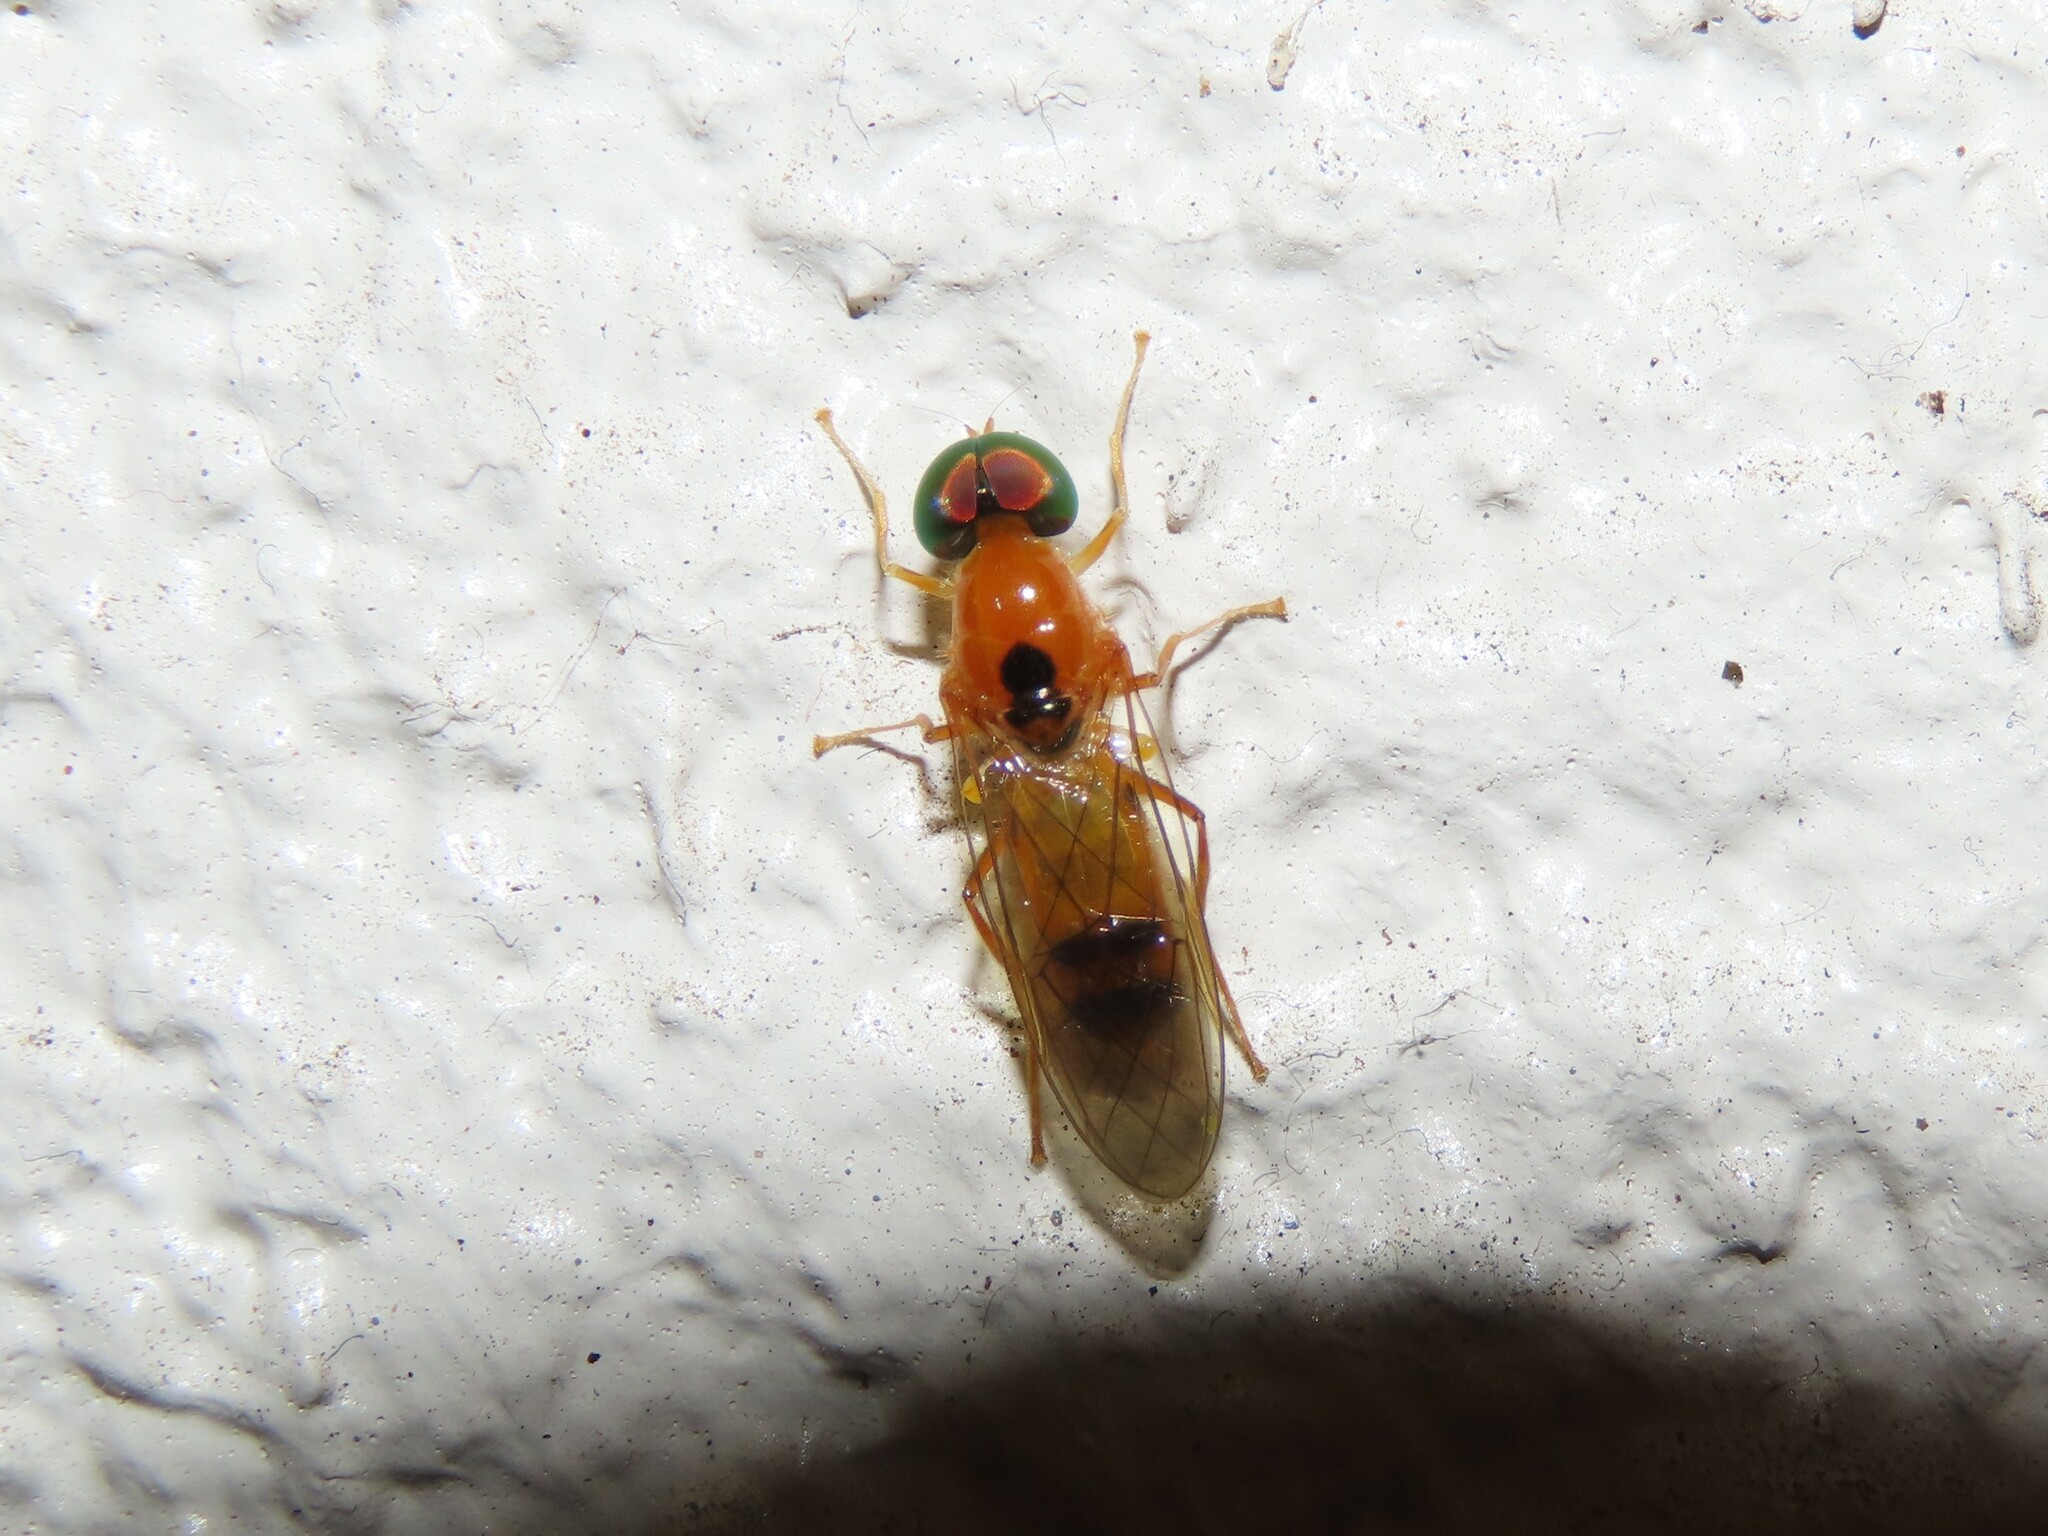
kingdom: Animalia
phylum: Arthropoda
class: Insecta
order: Diptera
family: Stratiomyidae
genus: Sargus
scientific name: Sargus elegans
